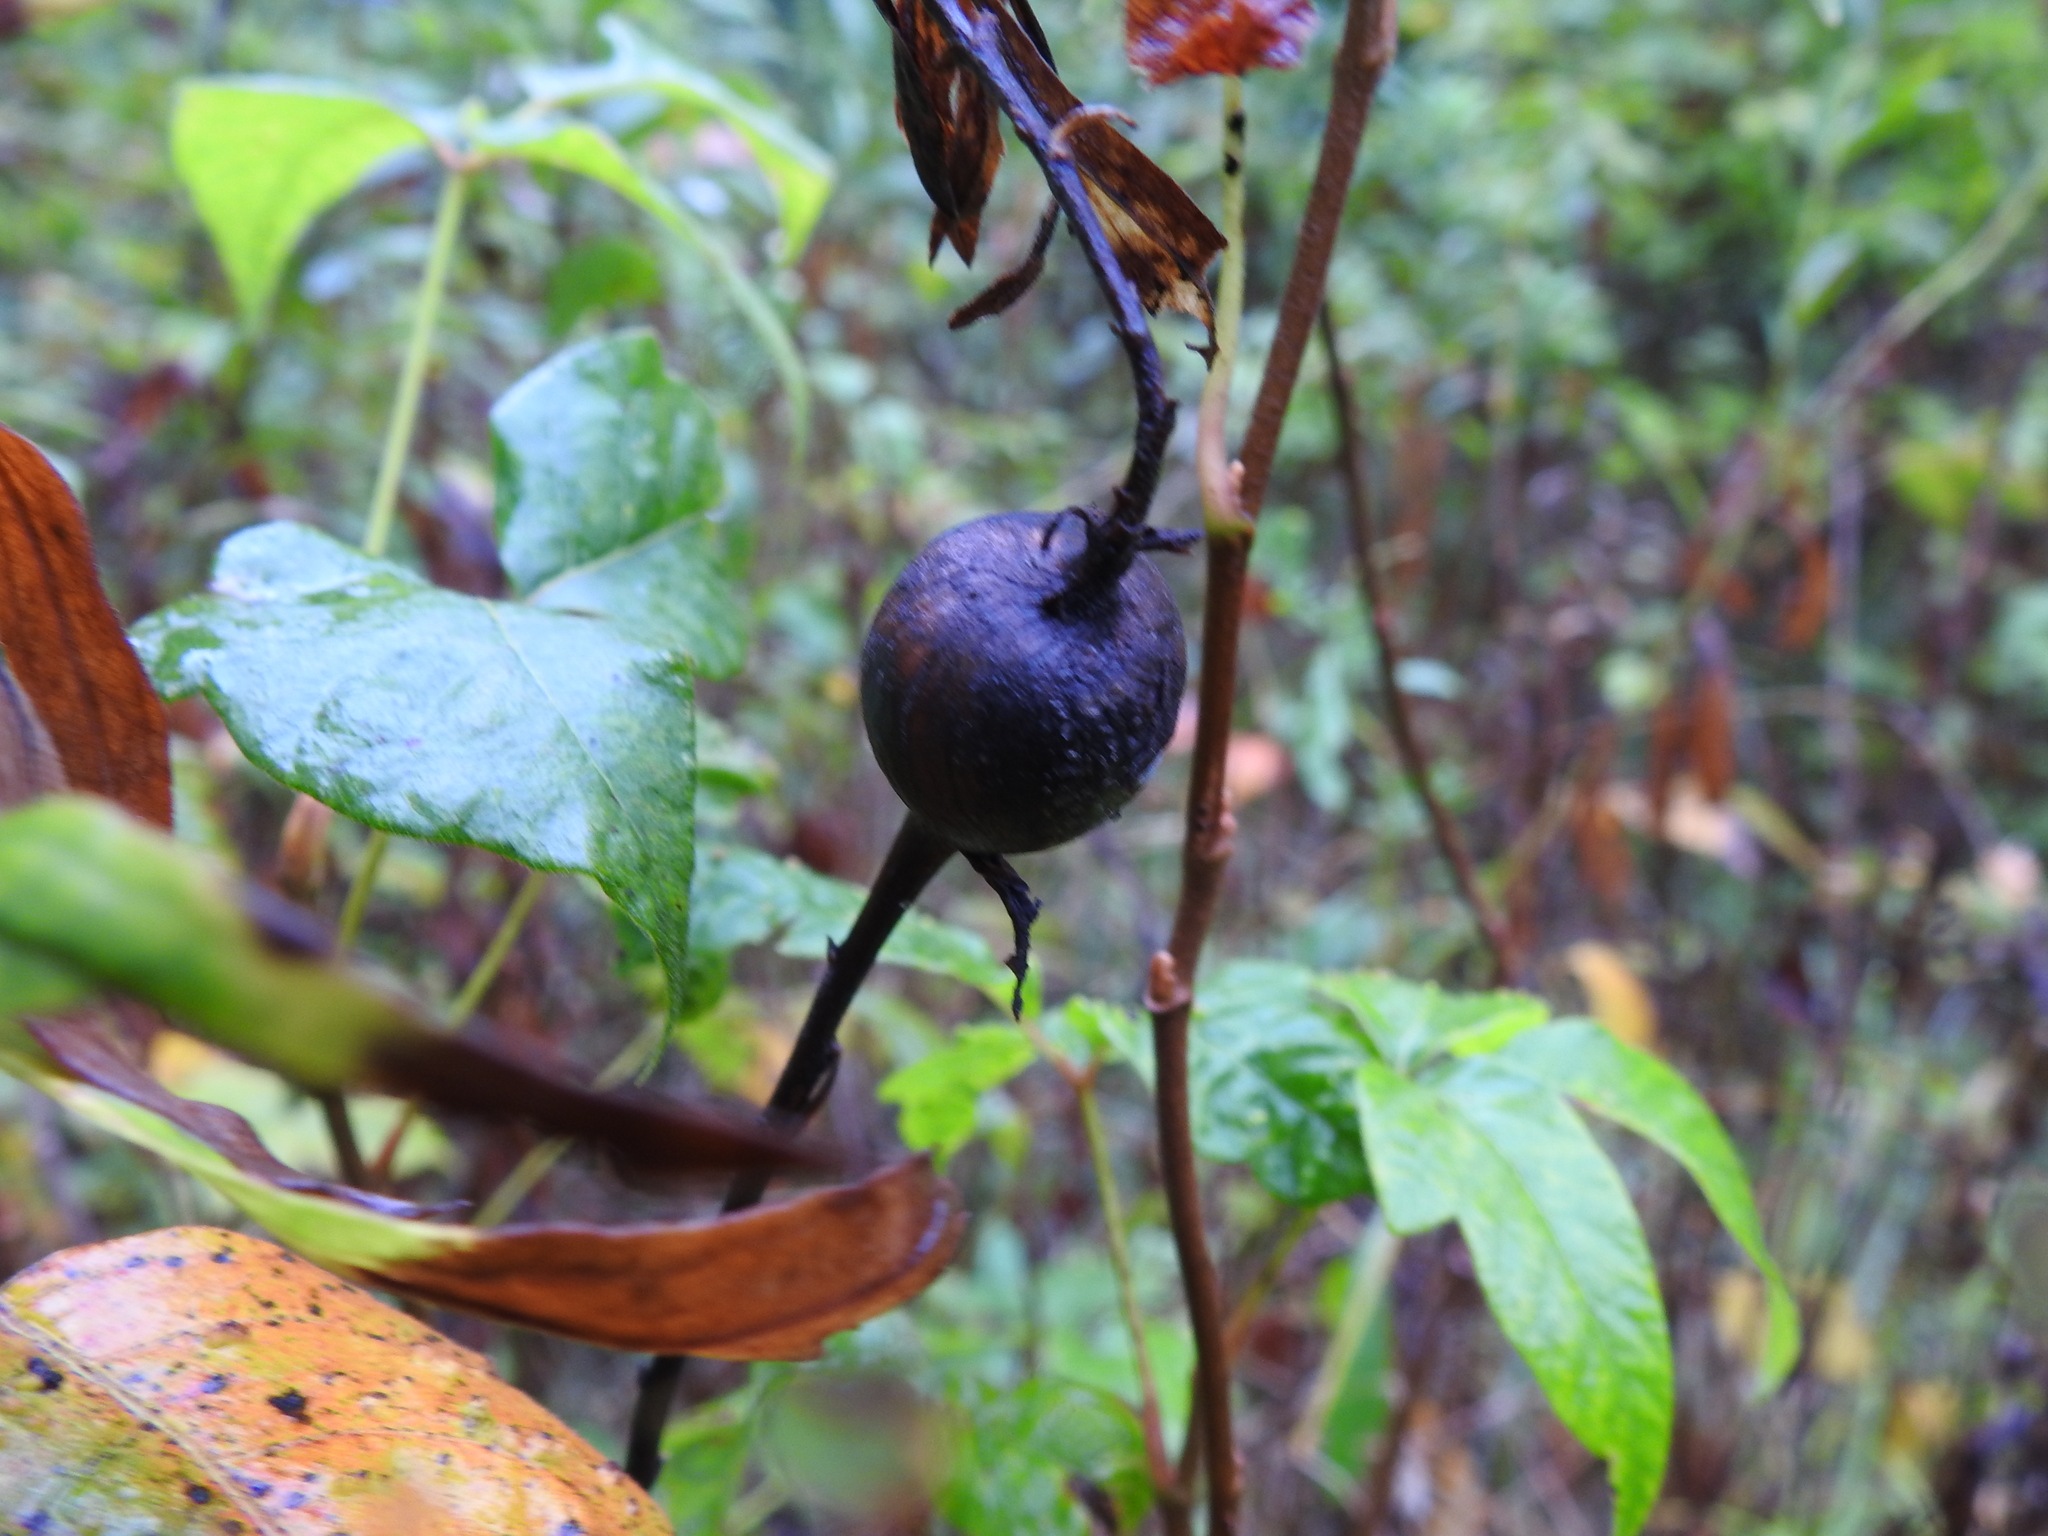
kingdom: Animalia
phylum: Arthropoda
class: Insecta
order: Diptera
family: Tephritidae
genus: Eurosta
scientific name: Eurosta solidaginis
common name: Goldenrod gall fly
